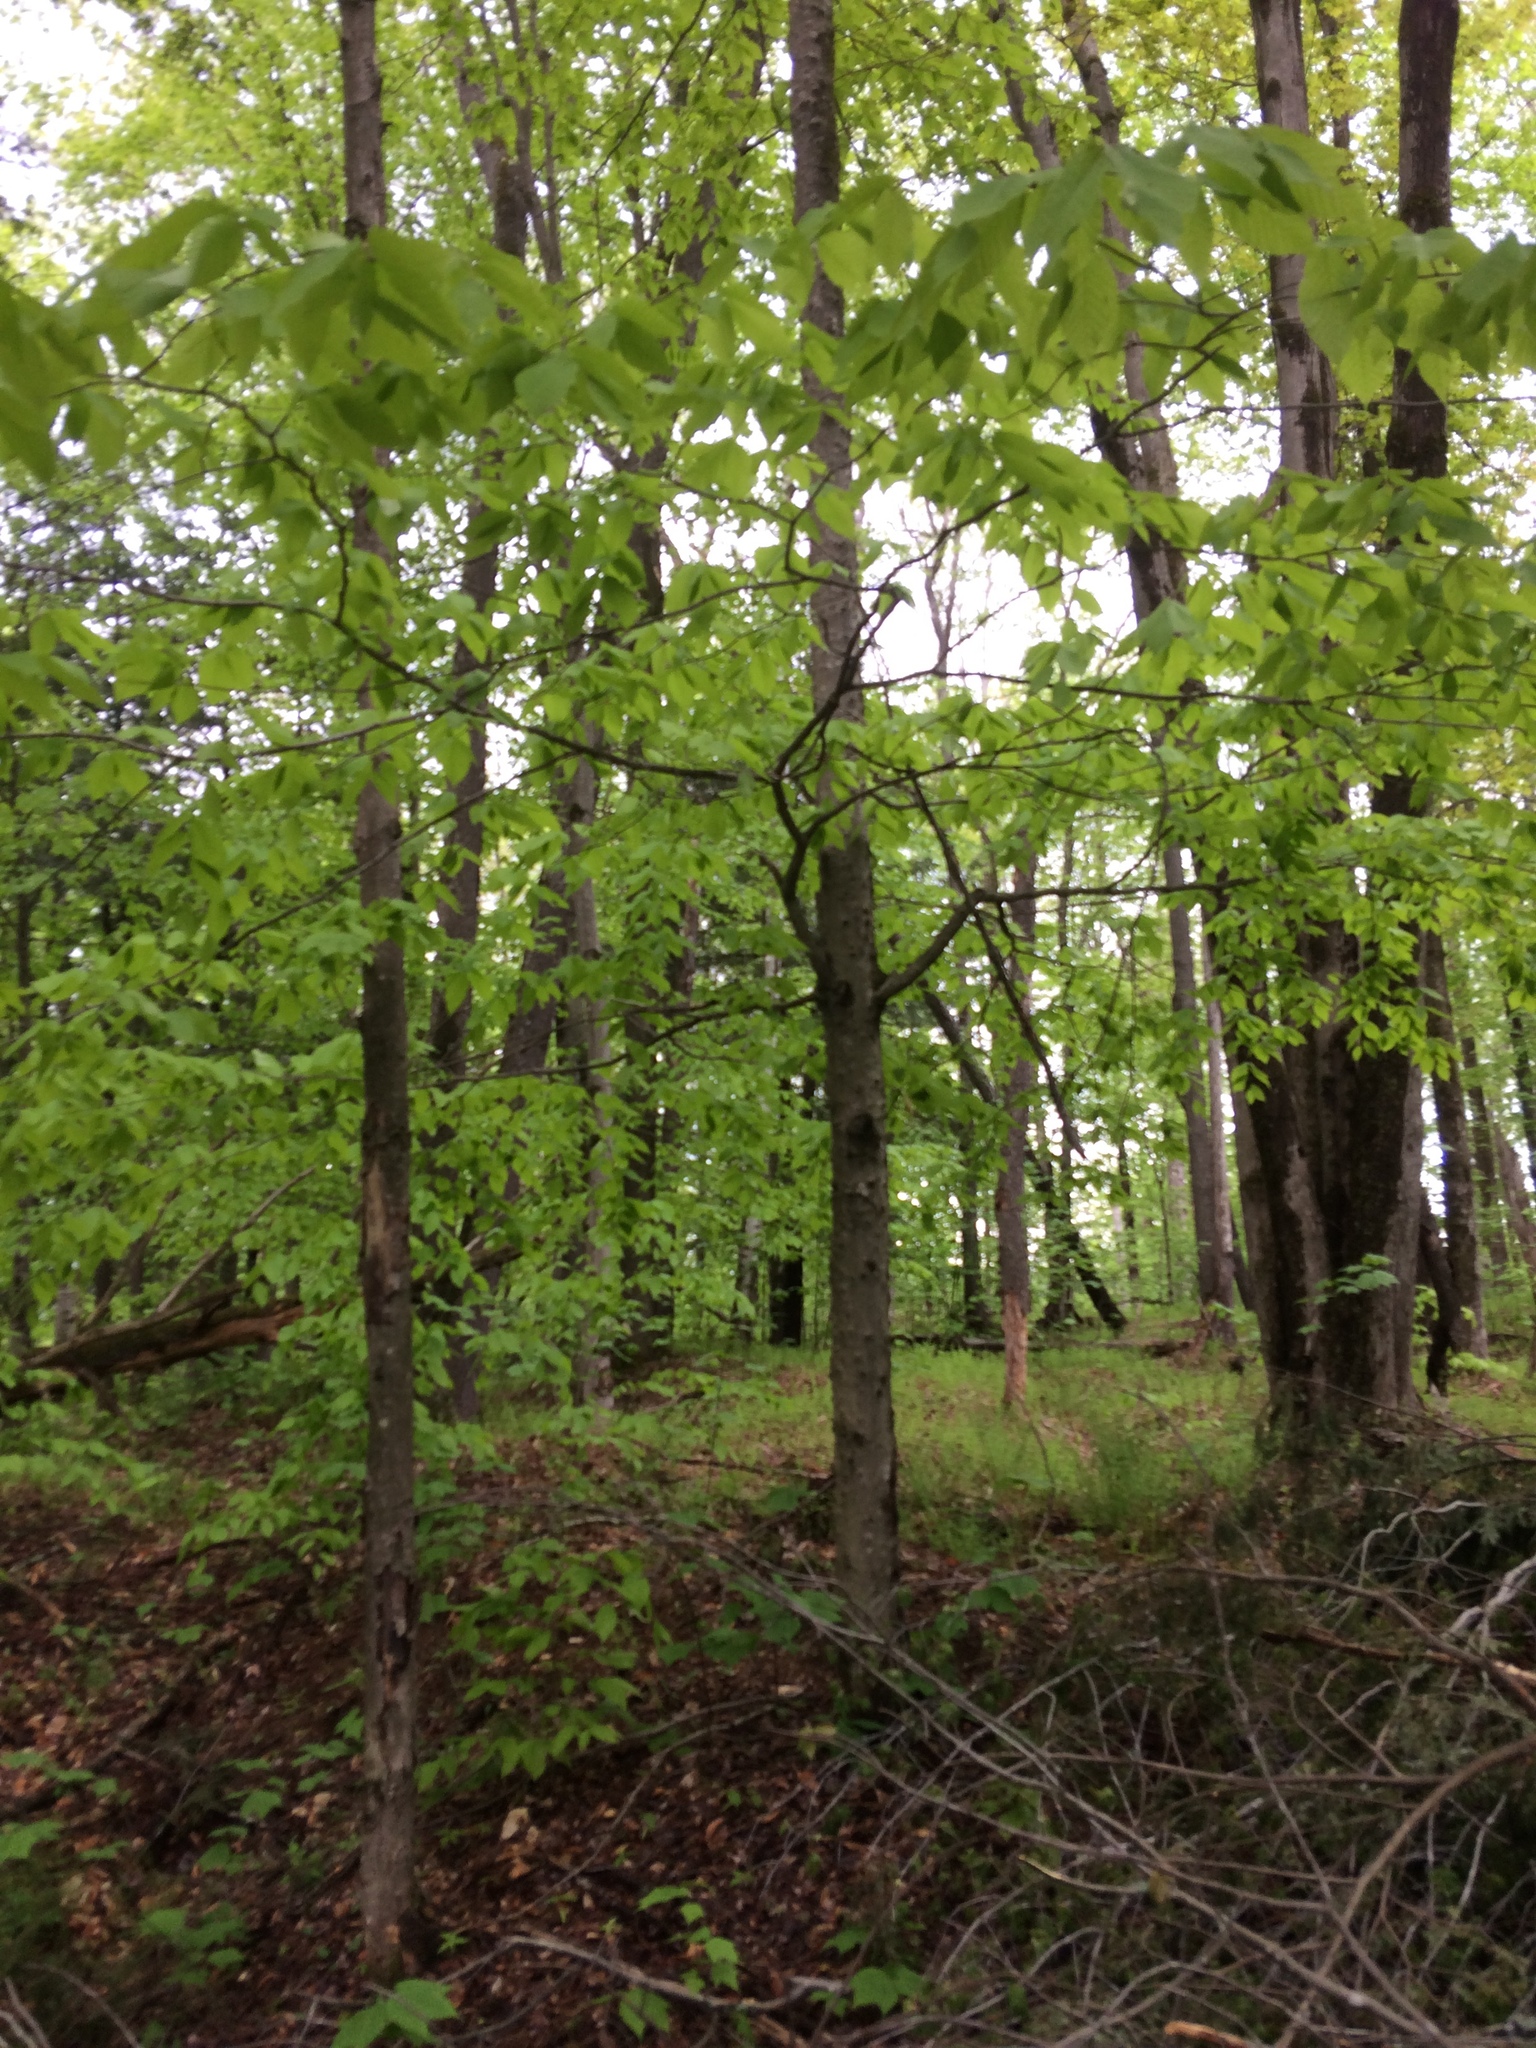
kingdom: Plantae
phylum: Tracheophyta
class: Magnoliopsida
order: Fagales
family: Fagaceae
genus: Fagus
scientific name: Fagus grandifolia
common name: American beech
